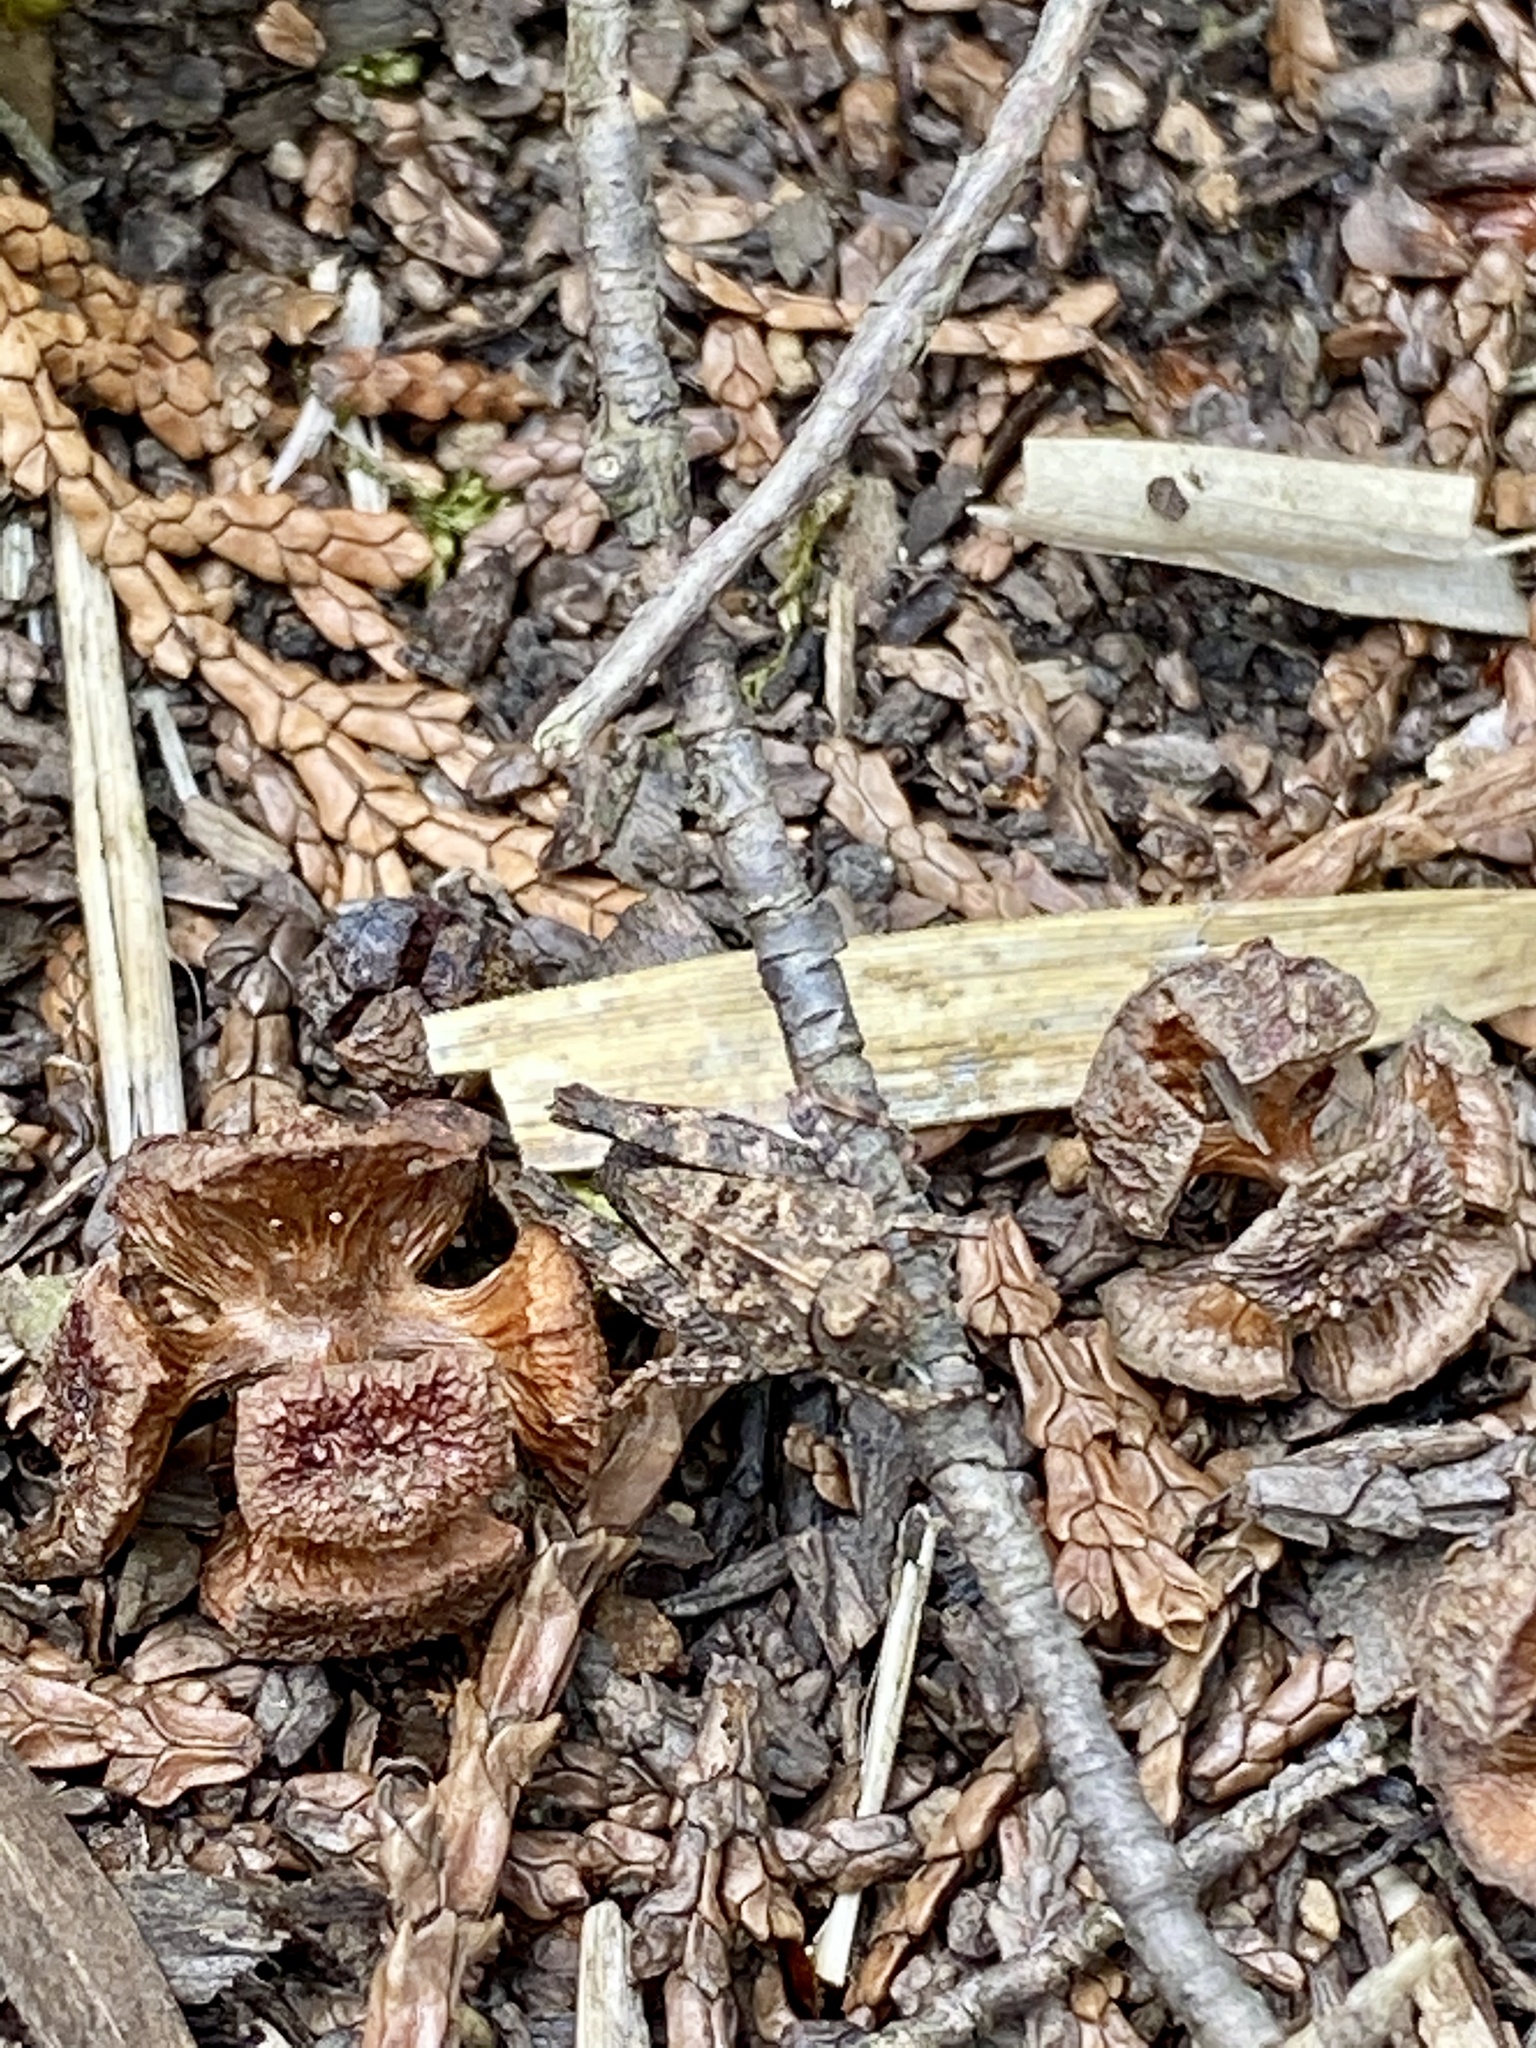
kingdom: Animalia
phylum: Arthropoda
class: Insecta
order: Orthoptera
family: Tetrigidae
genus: Tetrix
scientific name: Tetrix japonica
